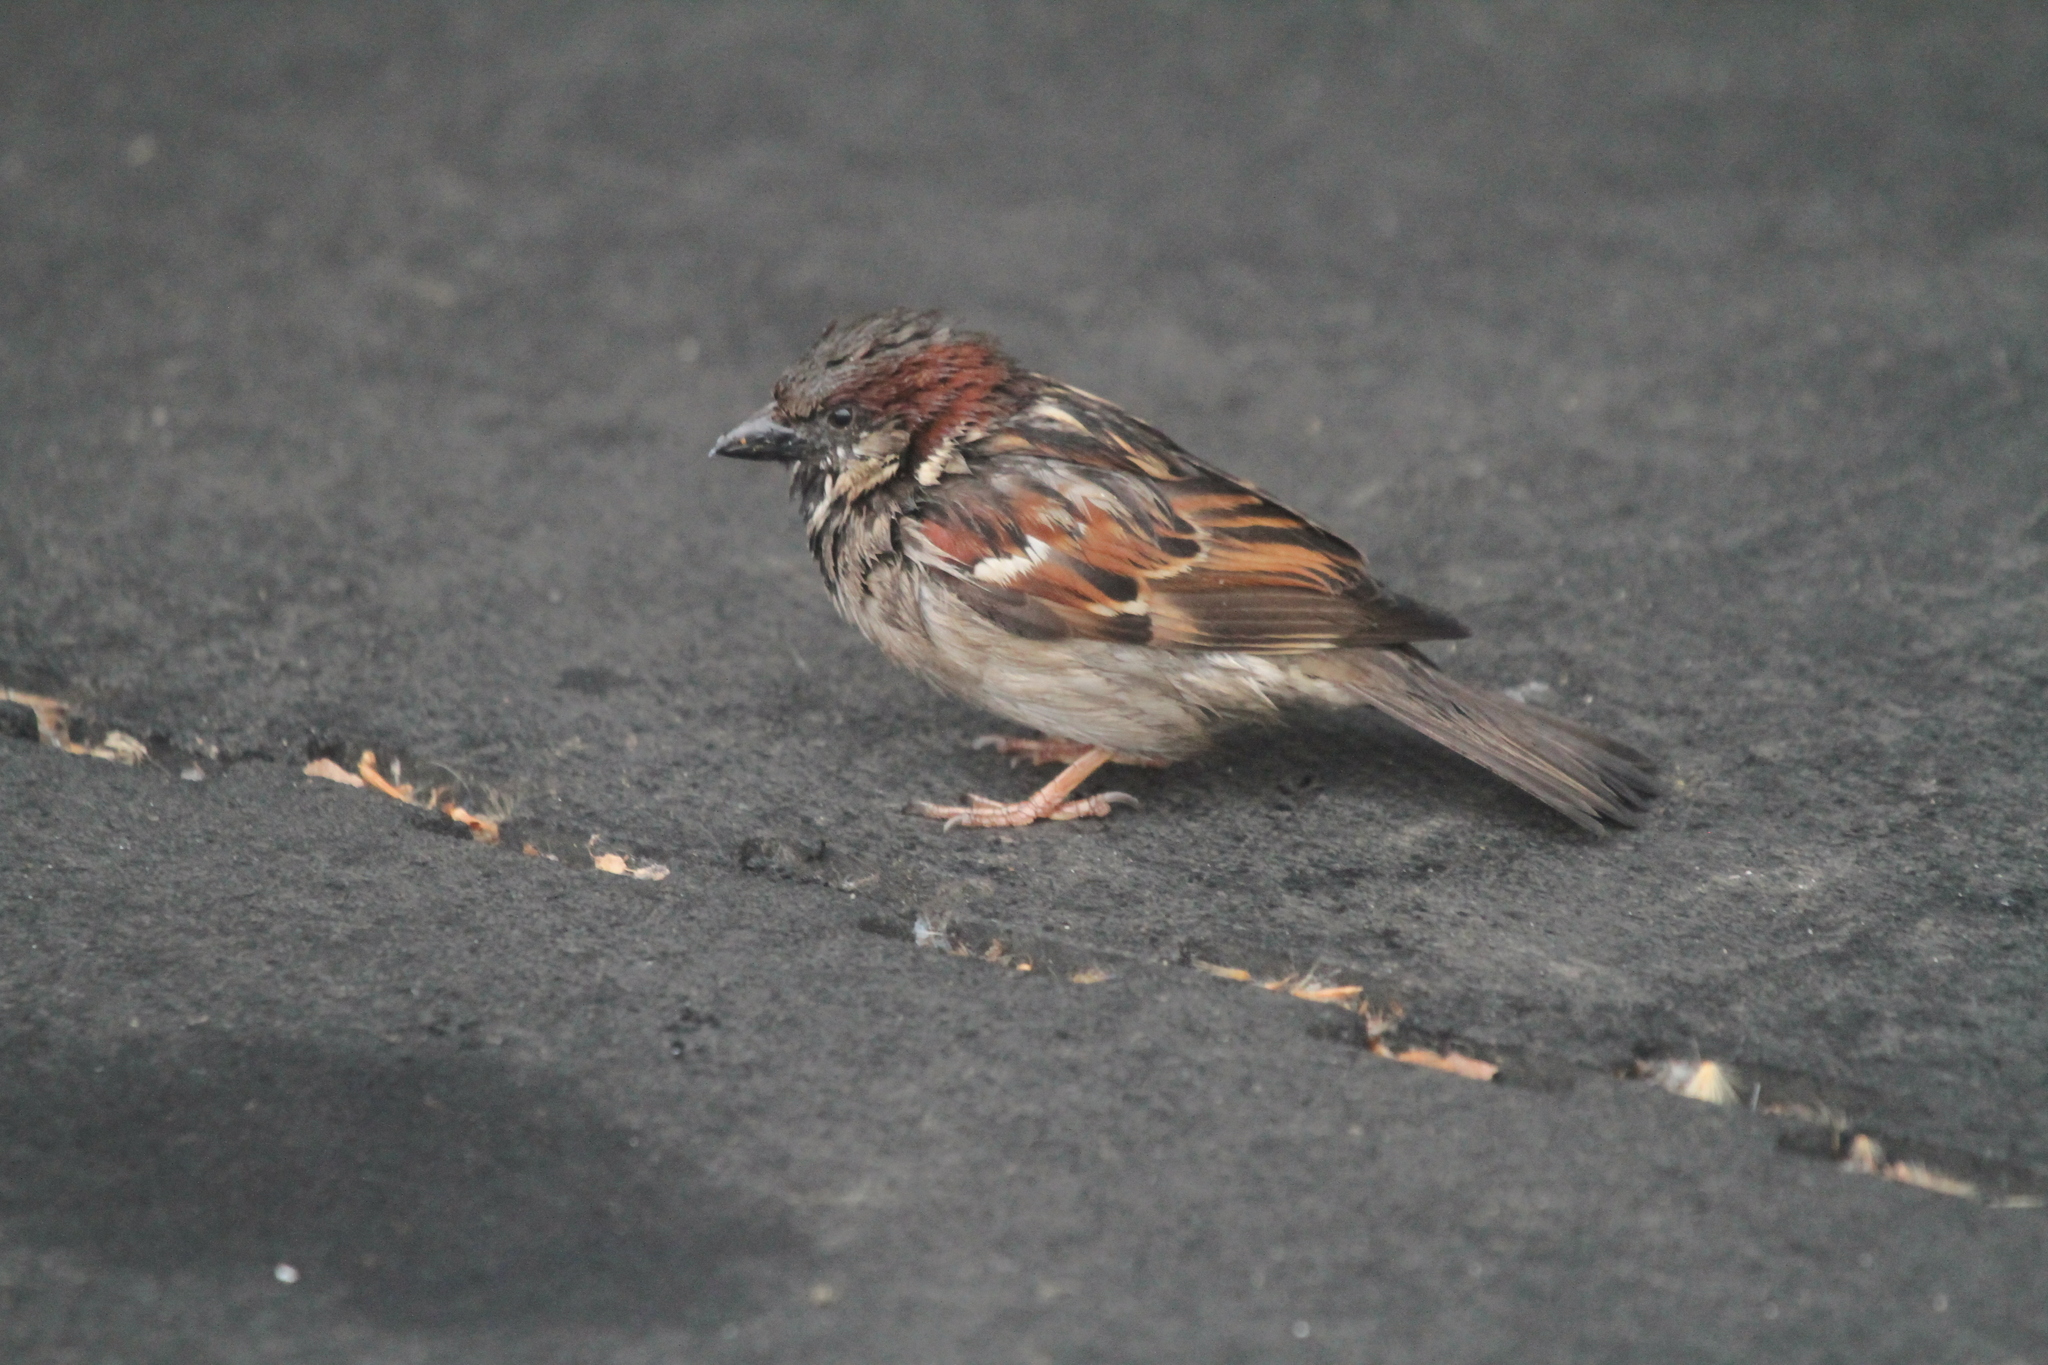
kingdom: Animalia
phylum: Chordata
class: Aves
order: Passeriformes
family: Passeridae
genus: Passer
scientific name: Passer domesticus
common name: House sparrow
